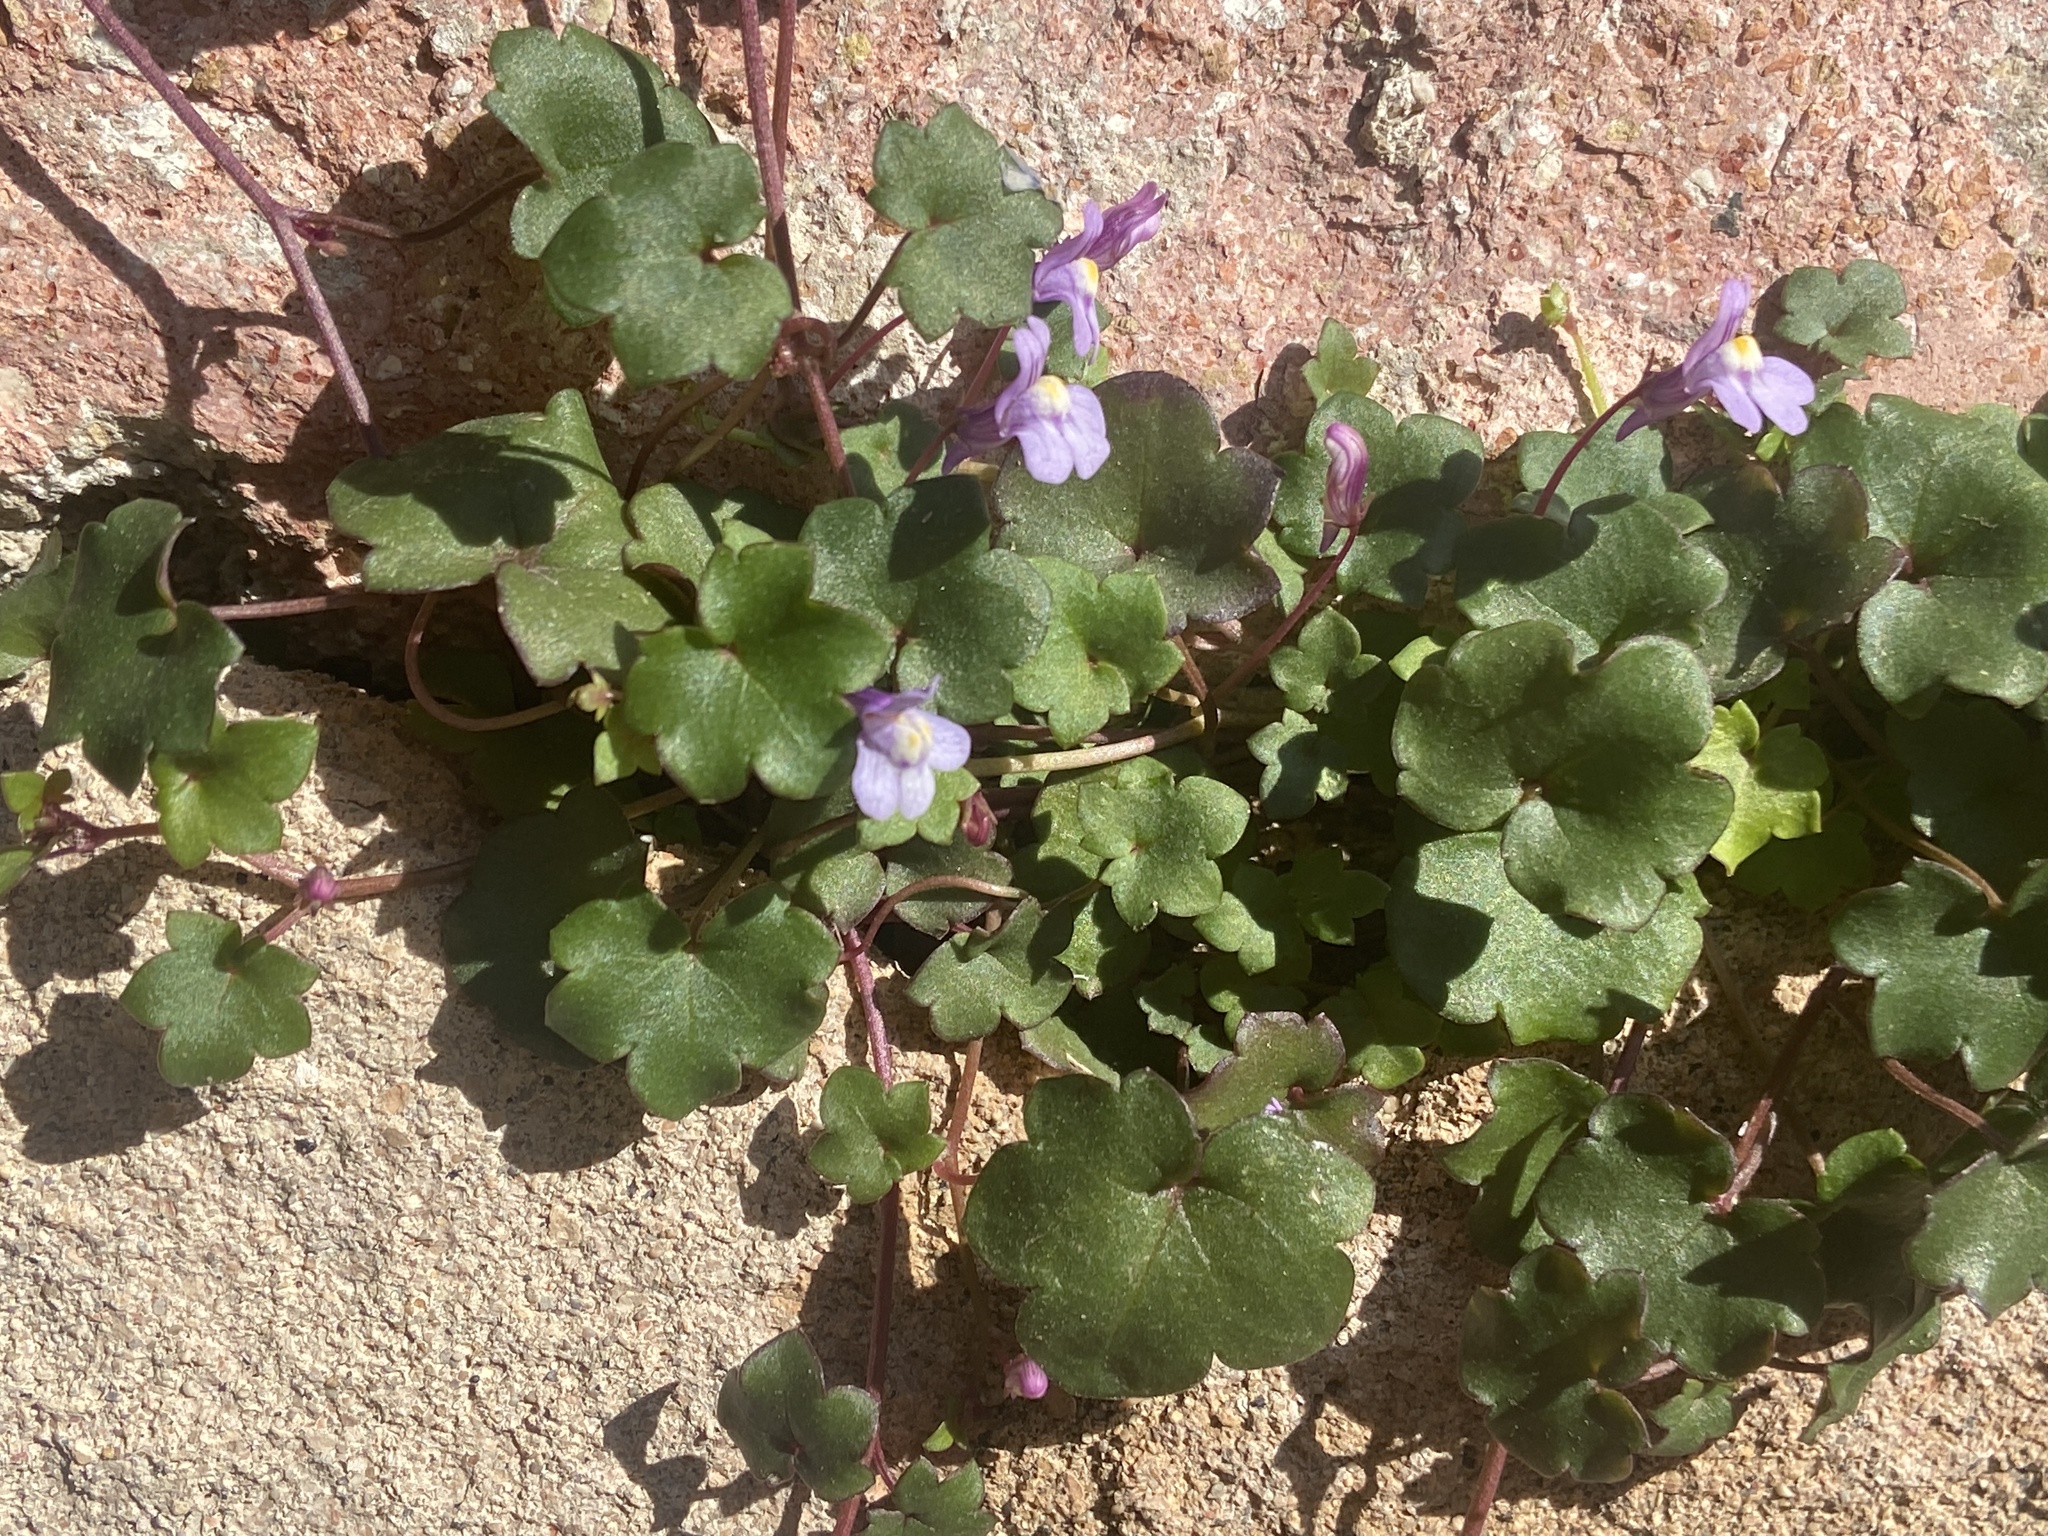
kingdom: Plantae
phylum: Tracheophyta
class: Magnoliopsida
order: Lamiales
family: Plantaginaceae
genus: Cymbalaria
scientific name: Cymbalaria muralis
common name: Ivy-leaved toadflax
